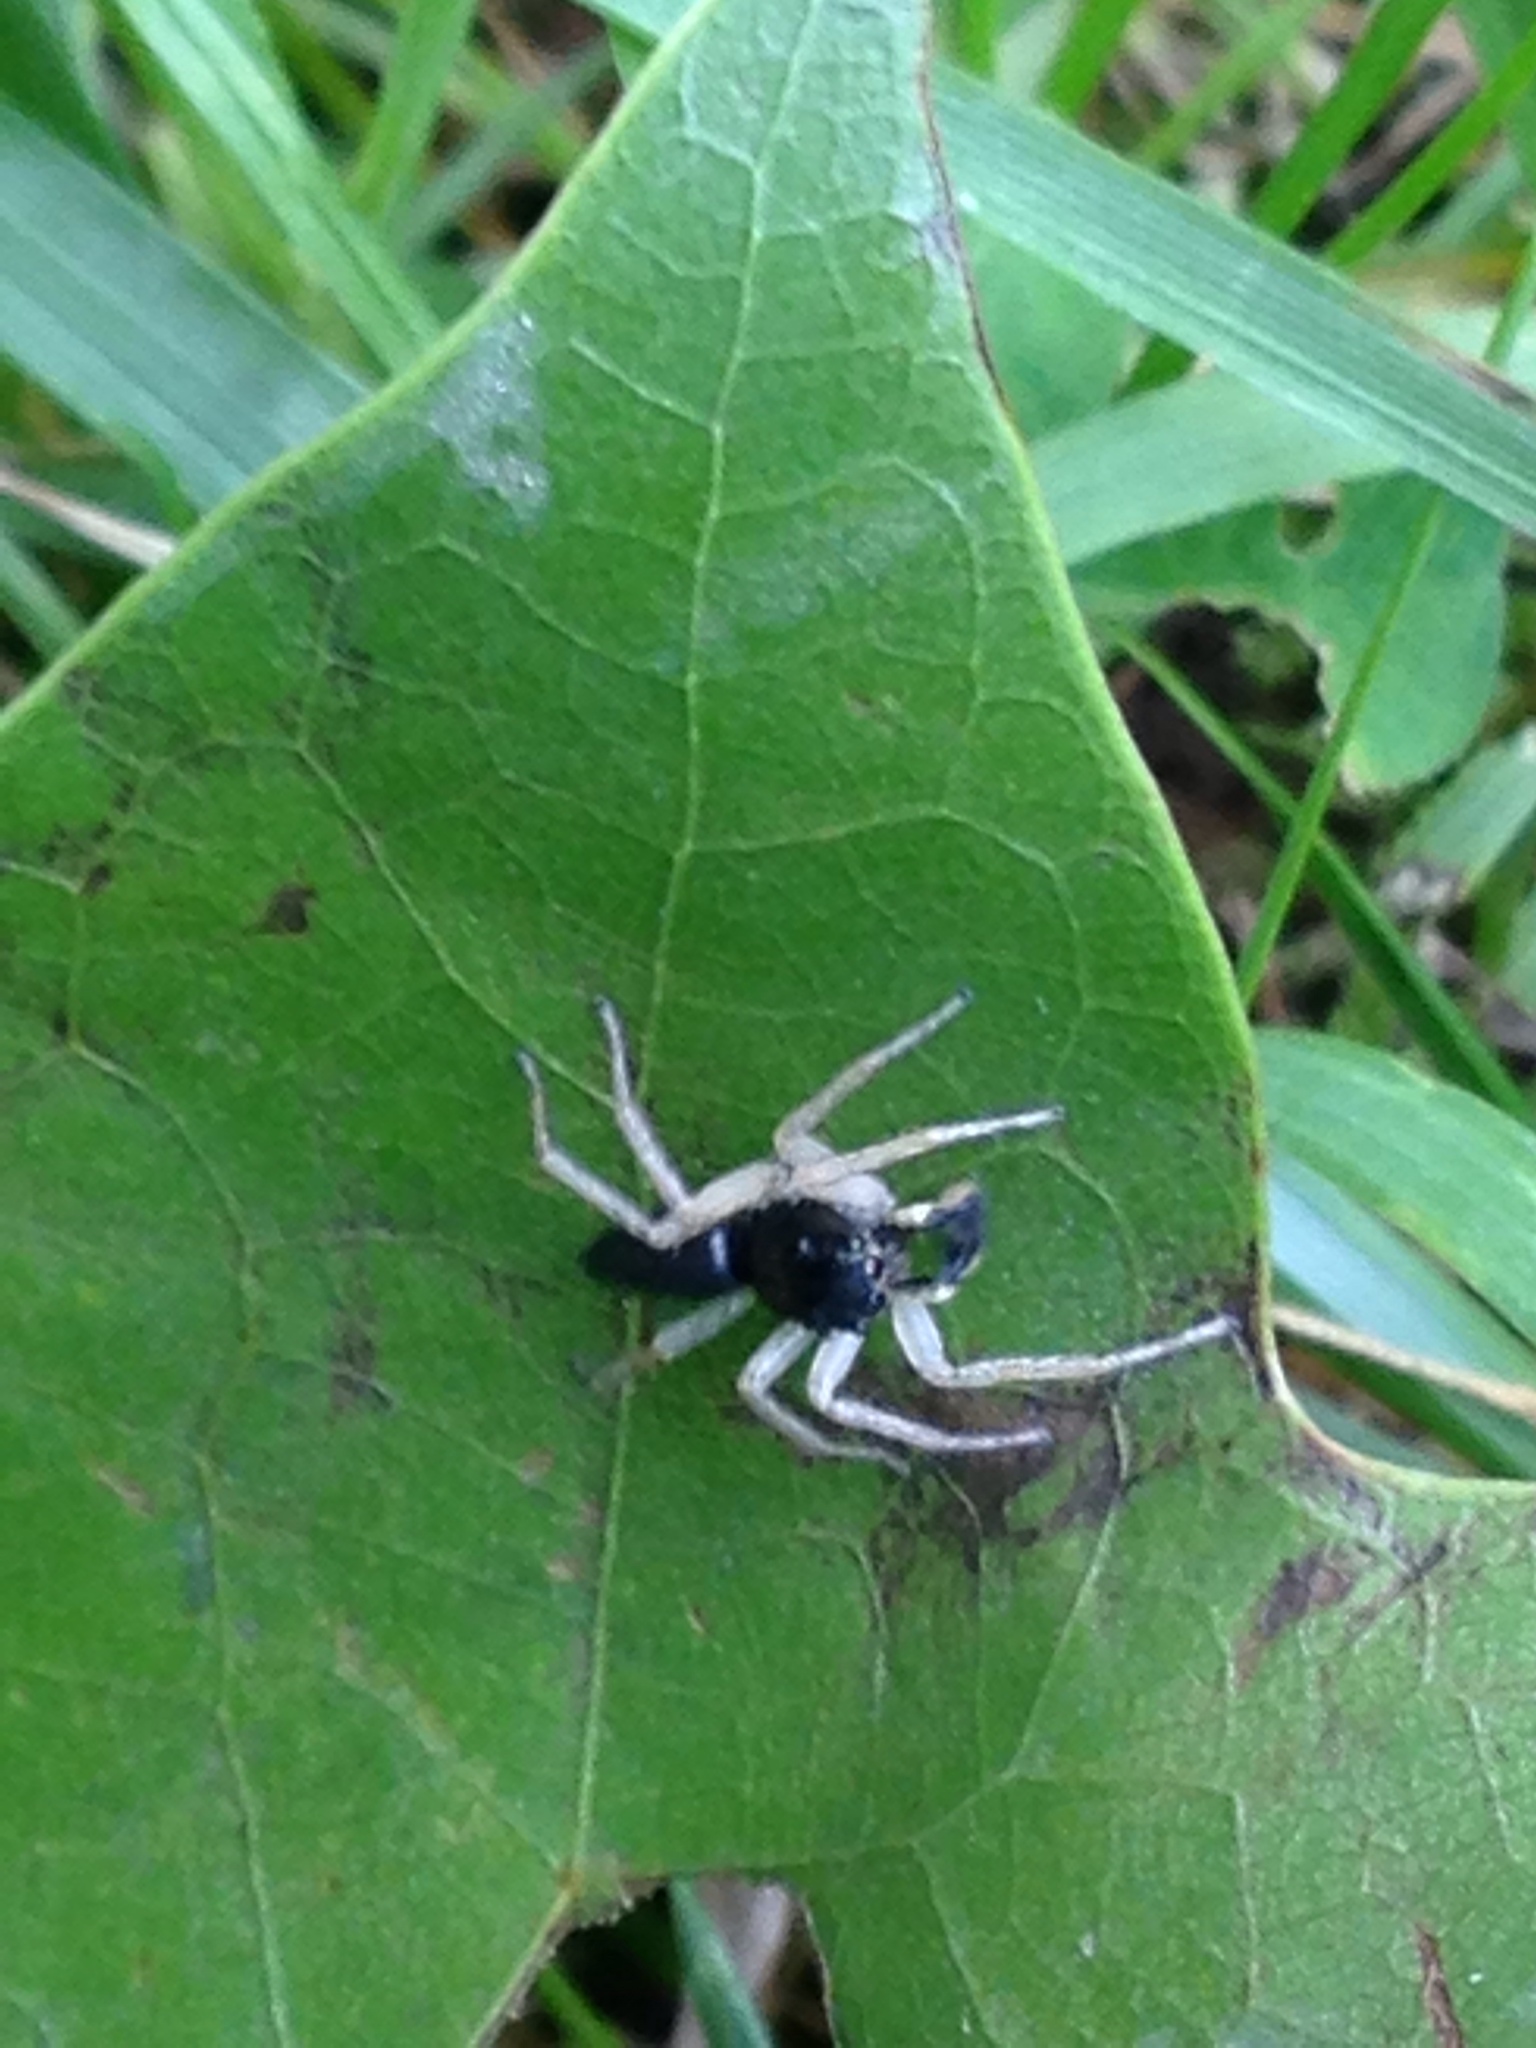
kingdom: Animalia
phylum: Arthropoda
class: Arachnida
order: Araneae
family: Salticidae
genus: Maevia
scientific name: Maevia inclemens
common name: Dimorphic jumper
